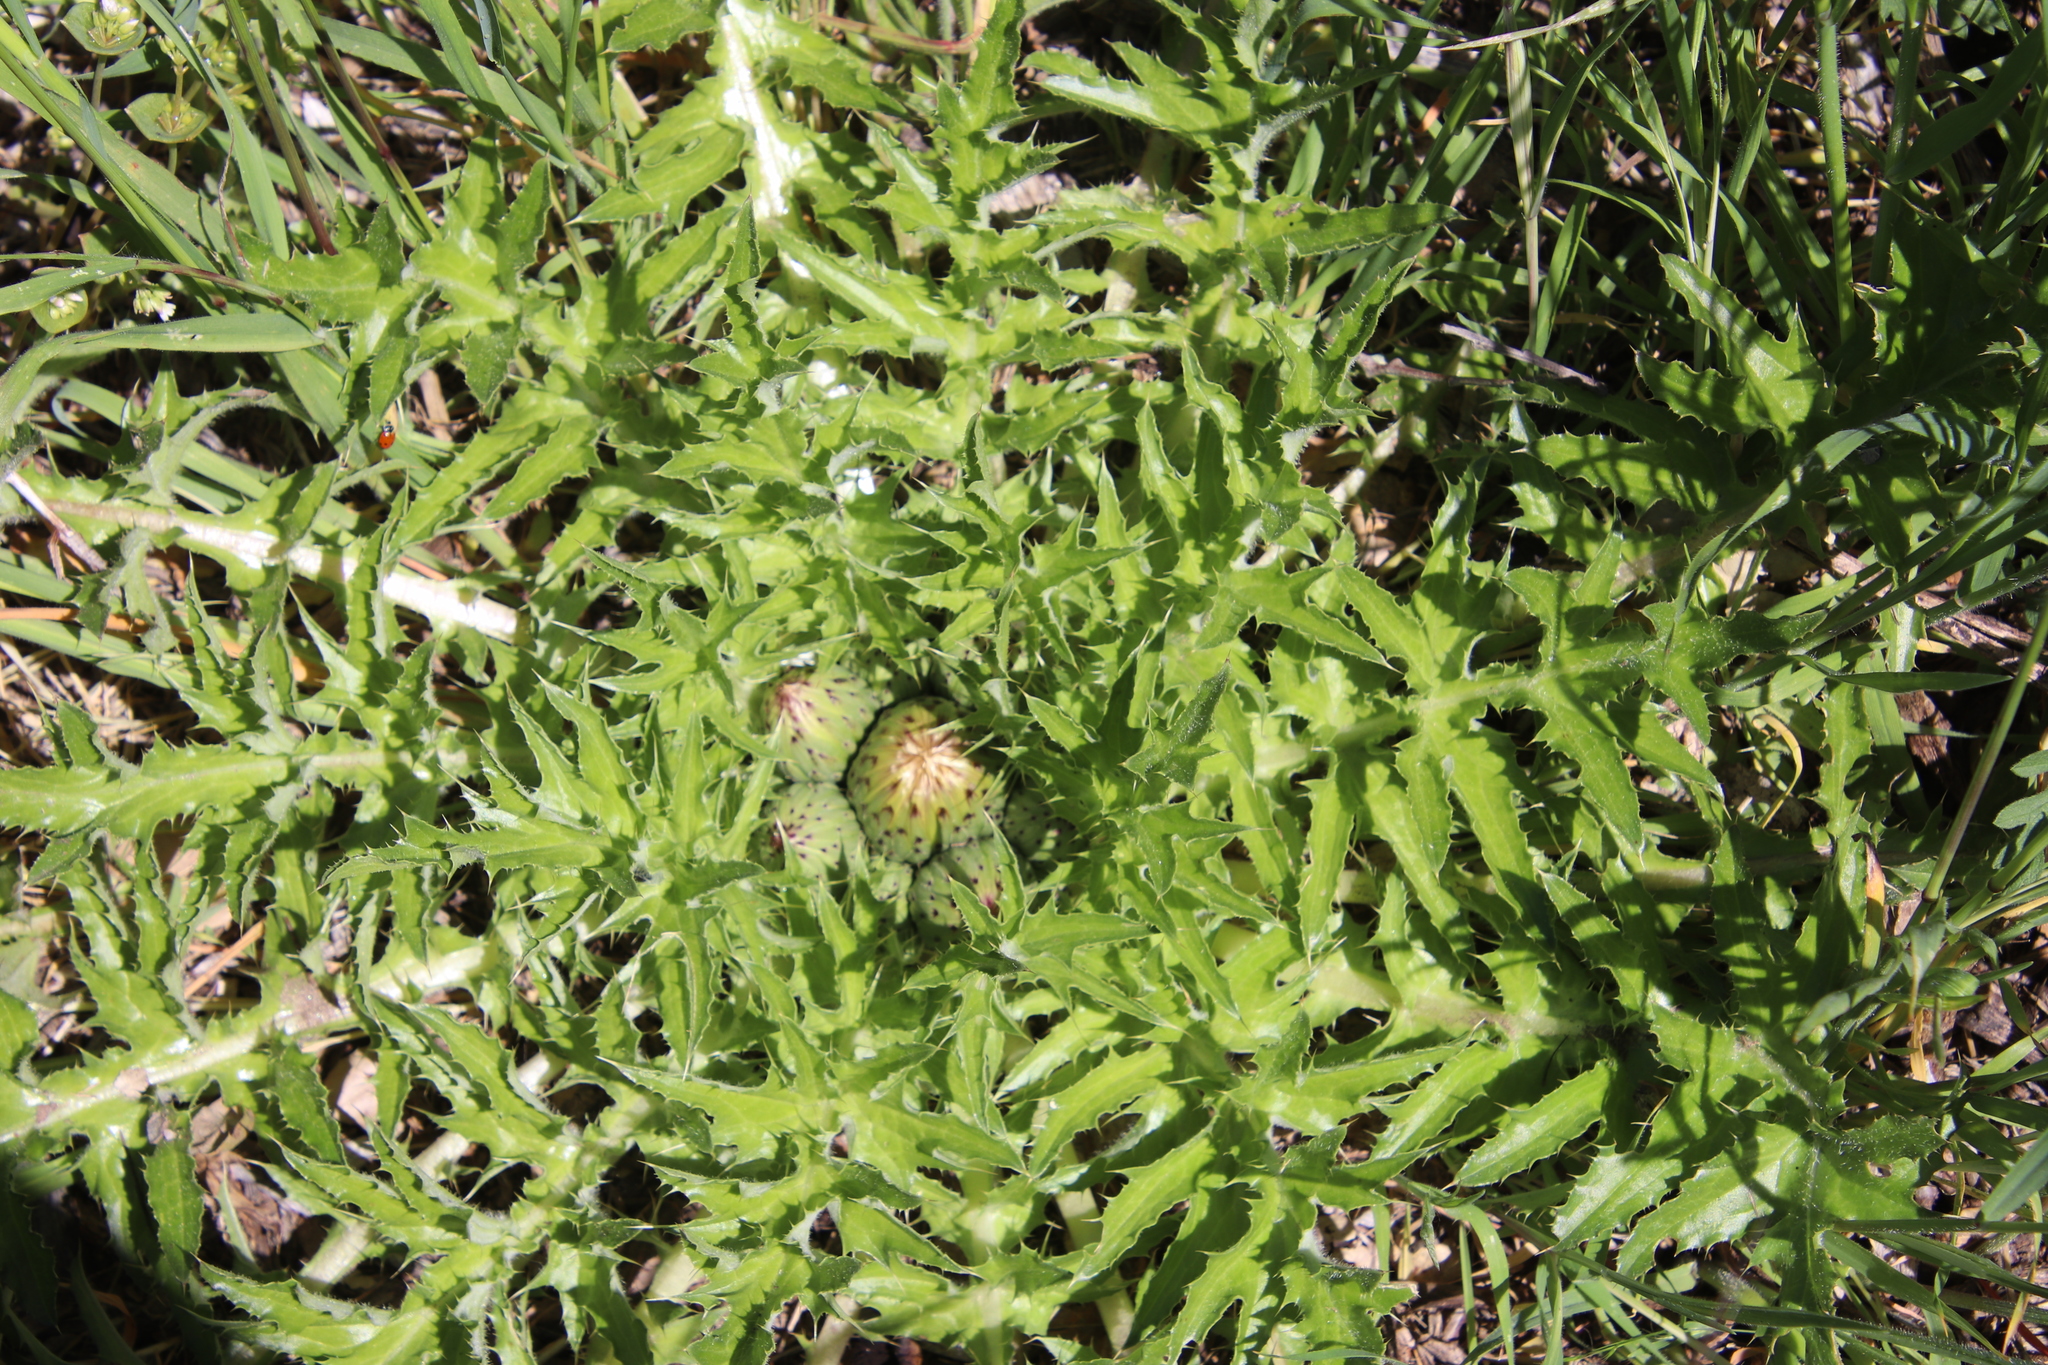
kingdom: Plantae
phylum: Tracheophyta
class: Magnoliopsida
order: Asterales
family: Asteraceae
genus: Cirsium
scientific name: Cirsium tioganum
